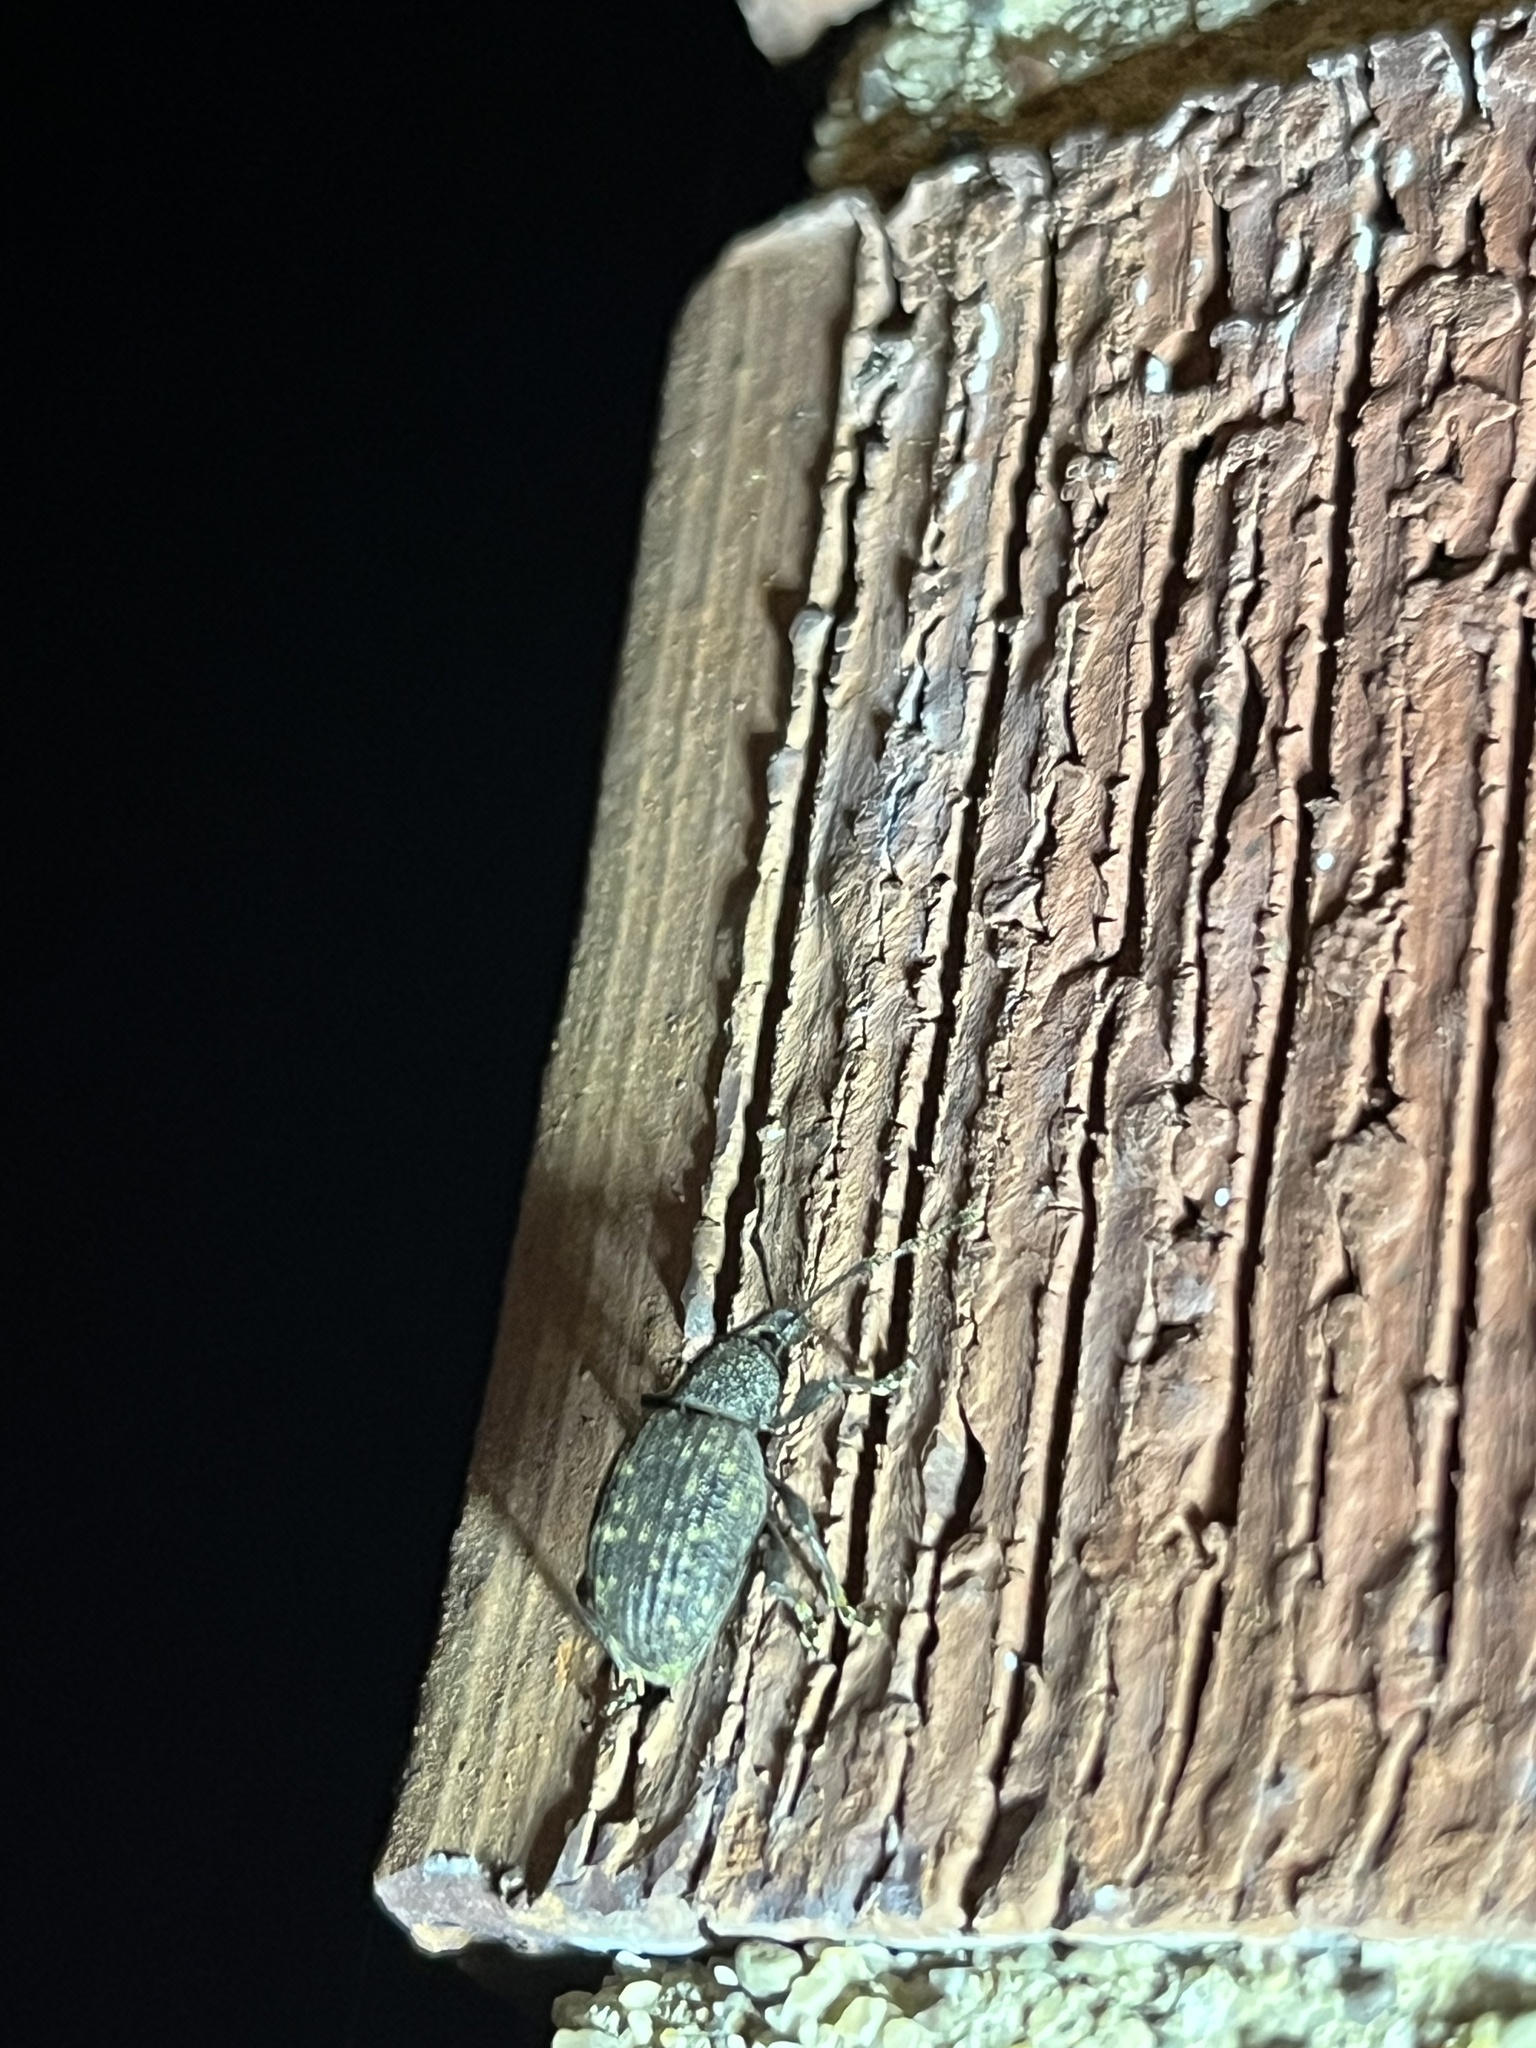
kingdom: Animalia
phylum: Arthropoda
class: Insecta
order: Coleoptera
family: Curculionidae
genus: Otiorhynchus
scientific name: Otiorhynchus sulcatus
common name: Black vine weevil
